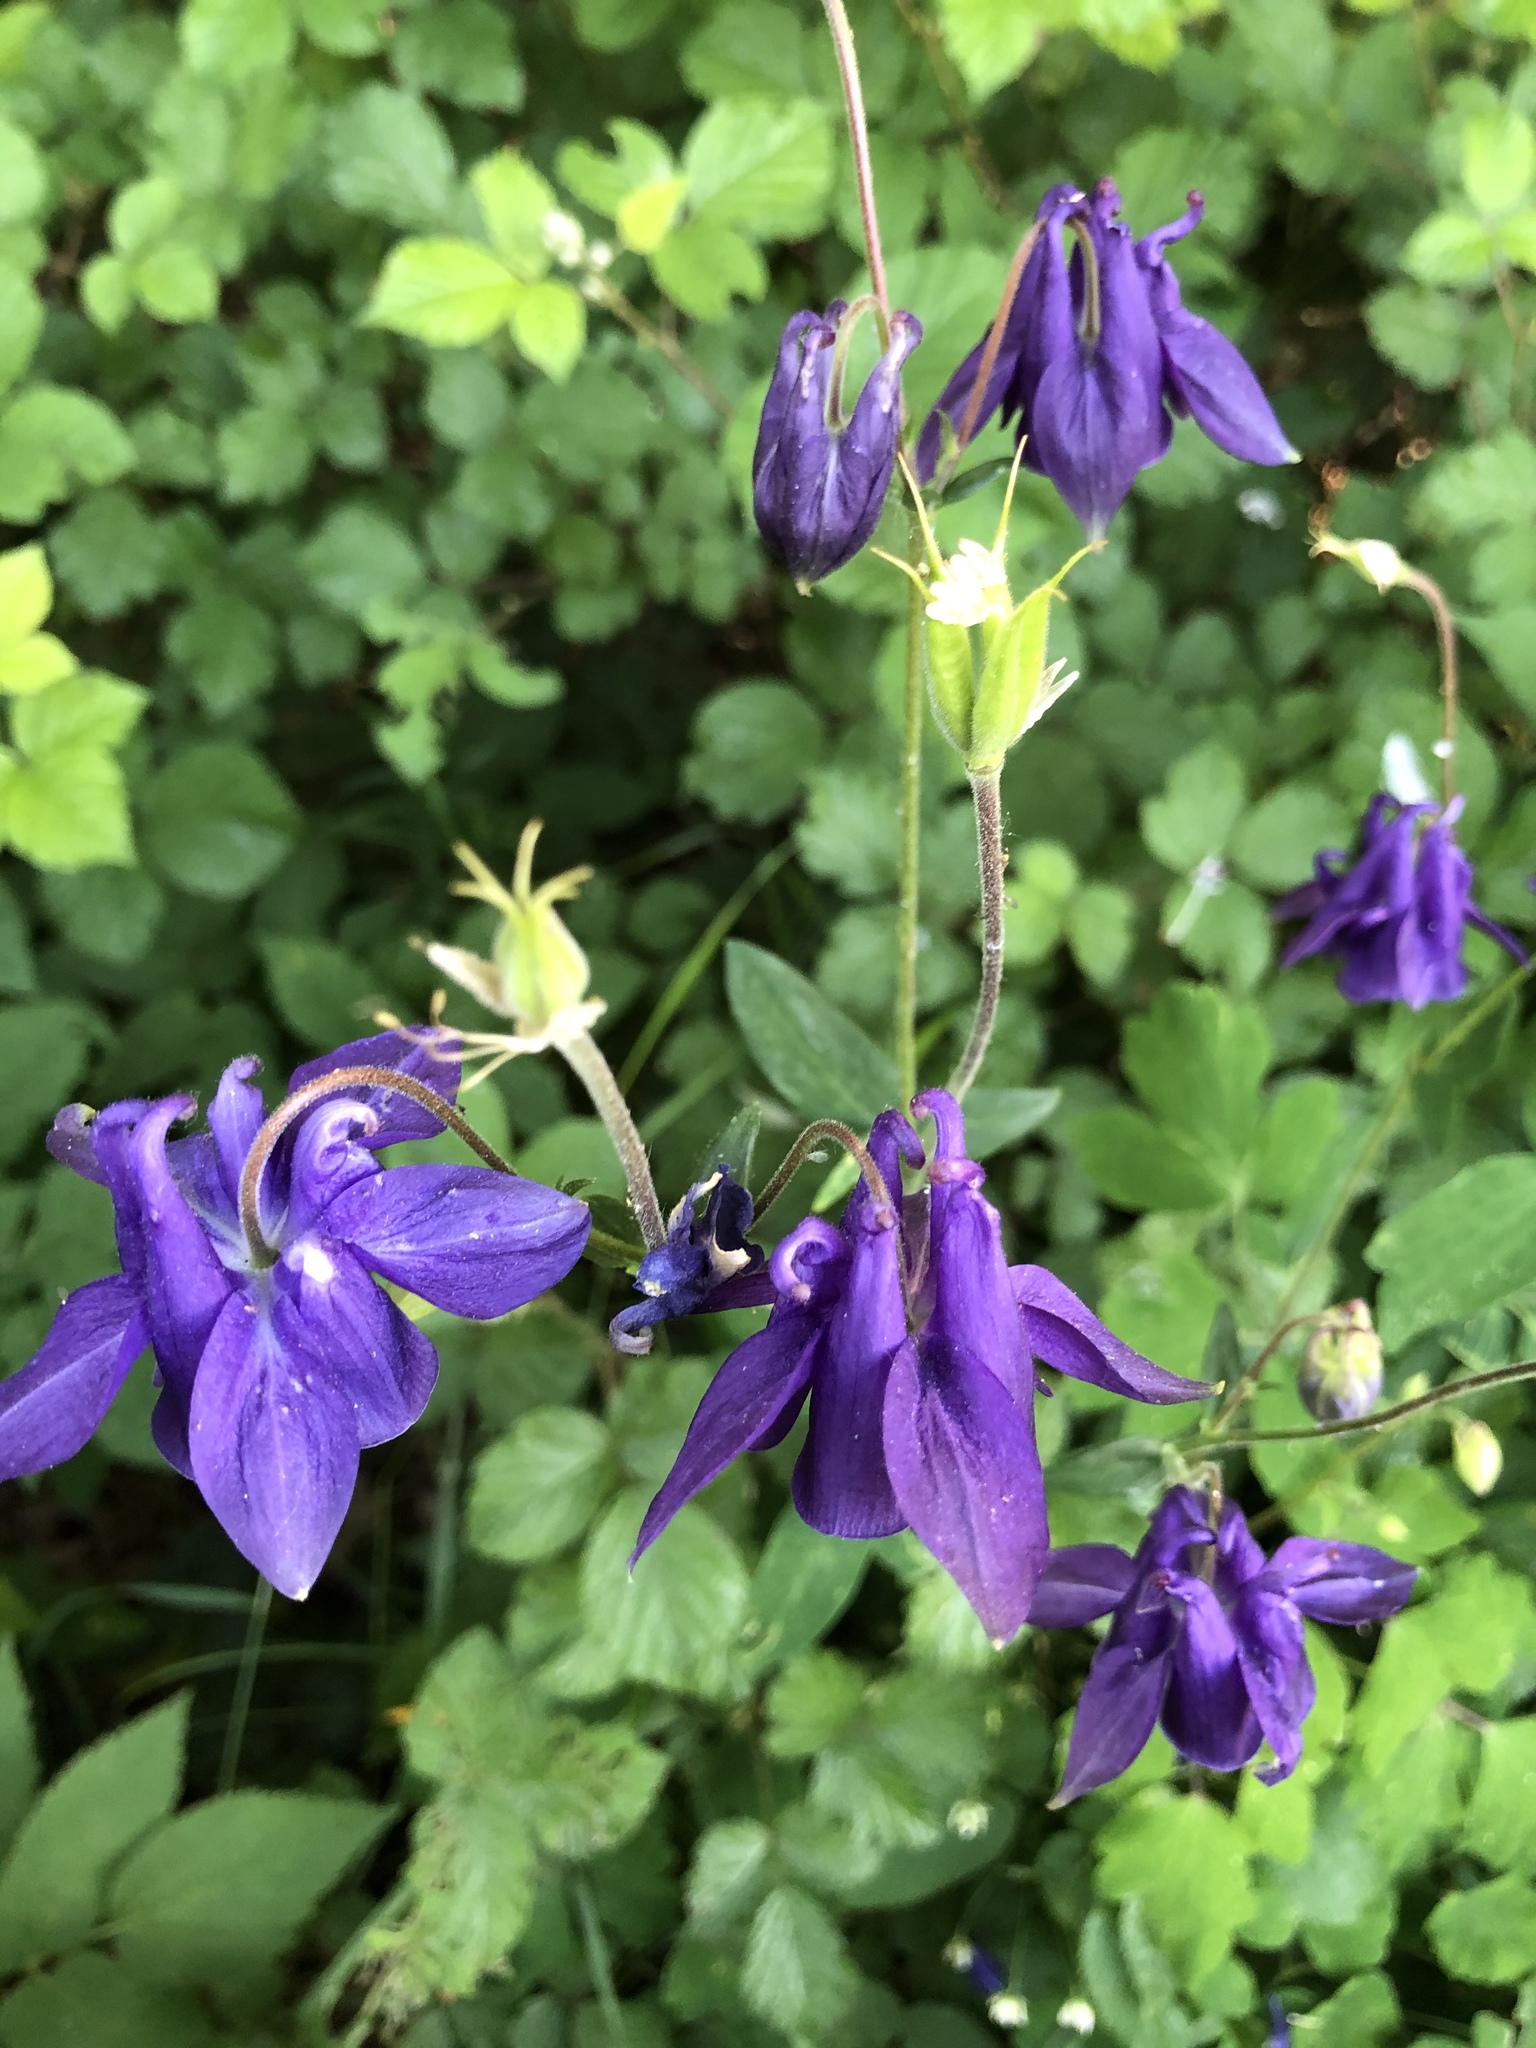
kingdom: Plantae
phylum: Tracheophyta
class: Magnoliopsida
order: Ranunculales
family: Ranunculaceae
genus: Aquilegia
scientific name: Aquilegia vulgaris
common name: Columbine
